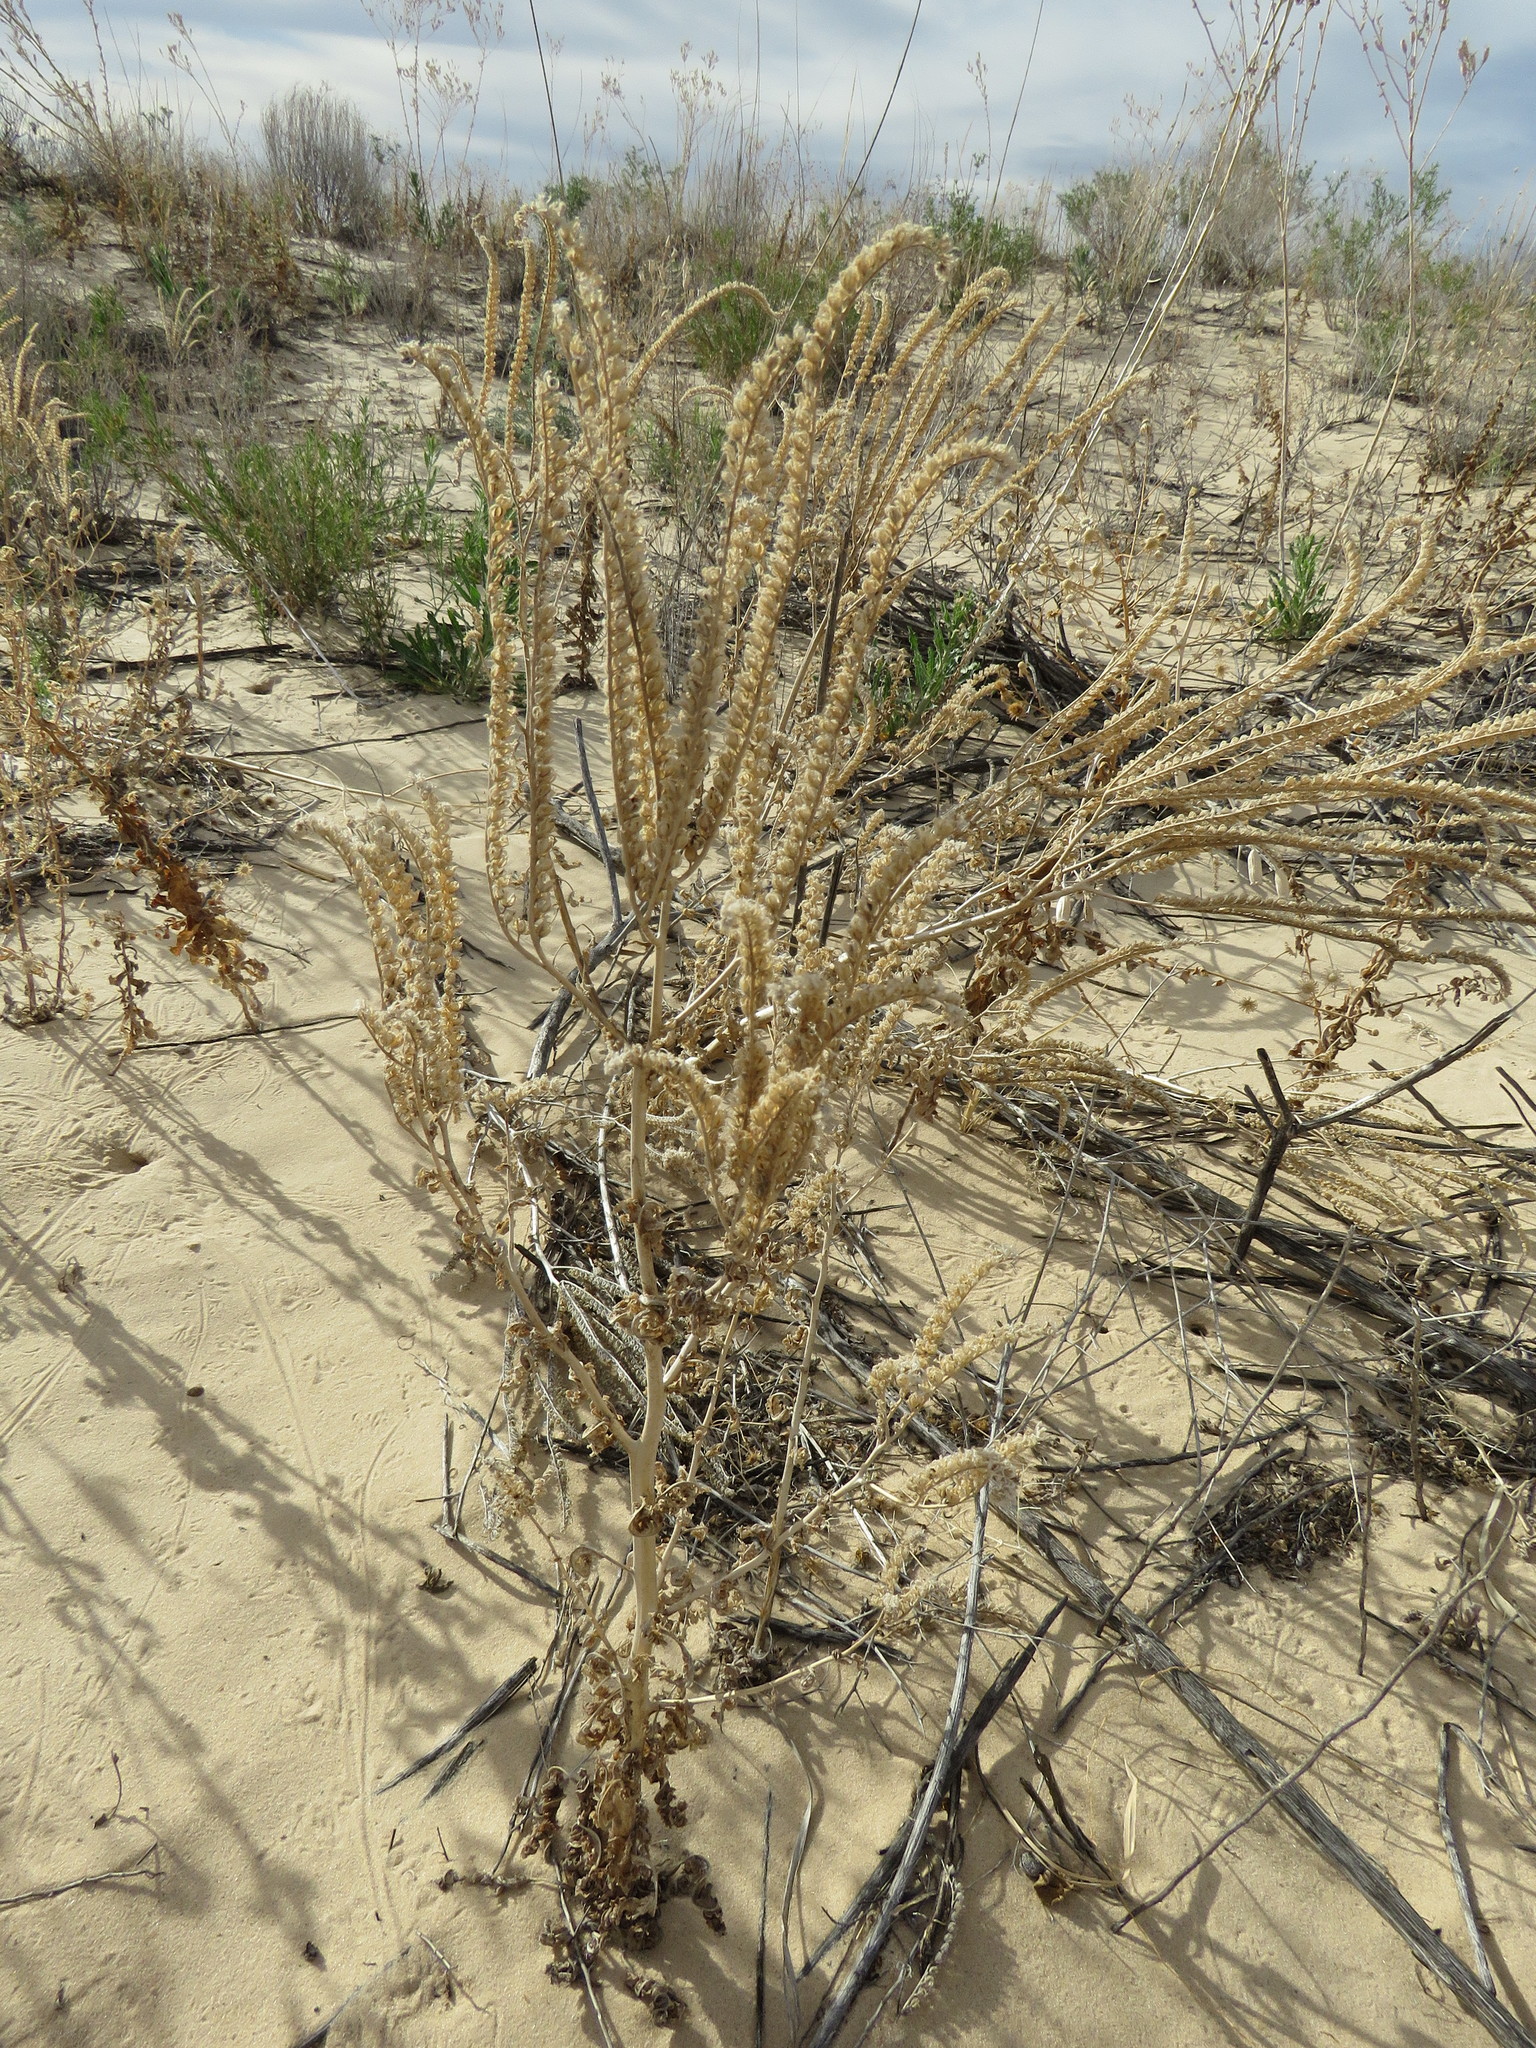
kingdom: Plantae
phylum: Tracheophyta
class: Magnoliopsida
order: Boraginales
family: Hydrophyllaceae
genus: Phacelia
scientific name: Phacelia integrifolia
